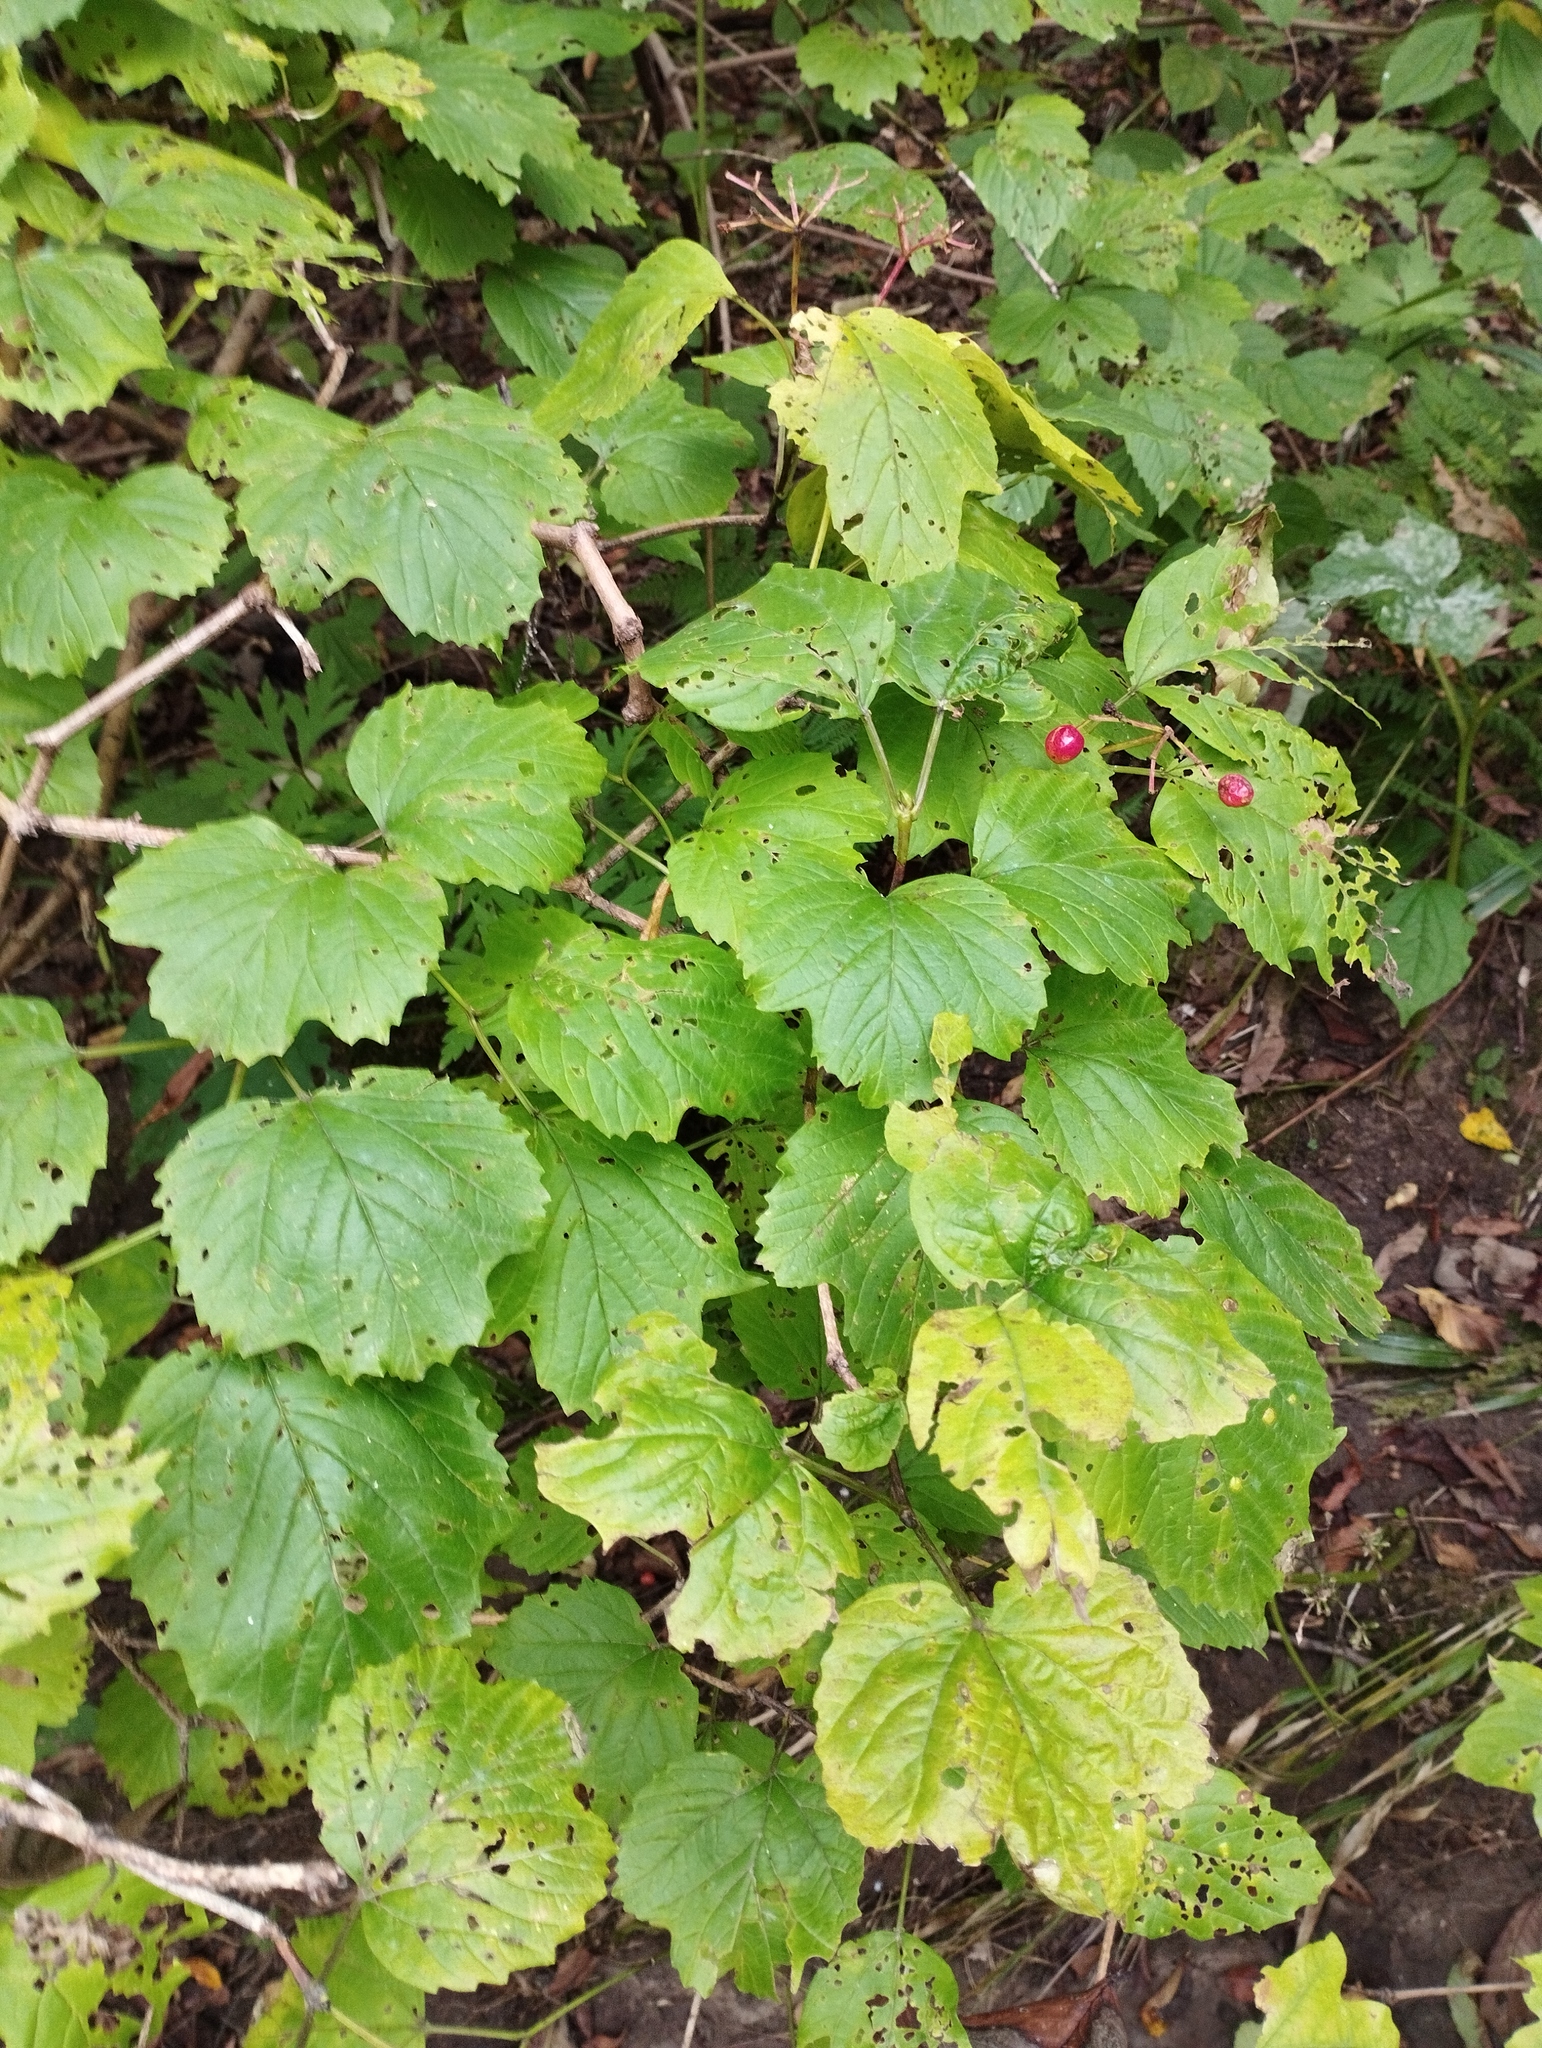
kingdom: Plantae
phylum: Tracheophyta
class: Magnoliopsida
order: Dipsacales
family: Viburnaceae
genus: Viburnum
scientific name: Viburnum sargentii
